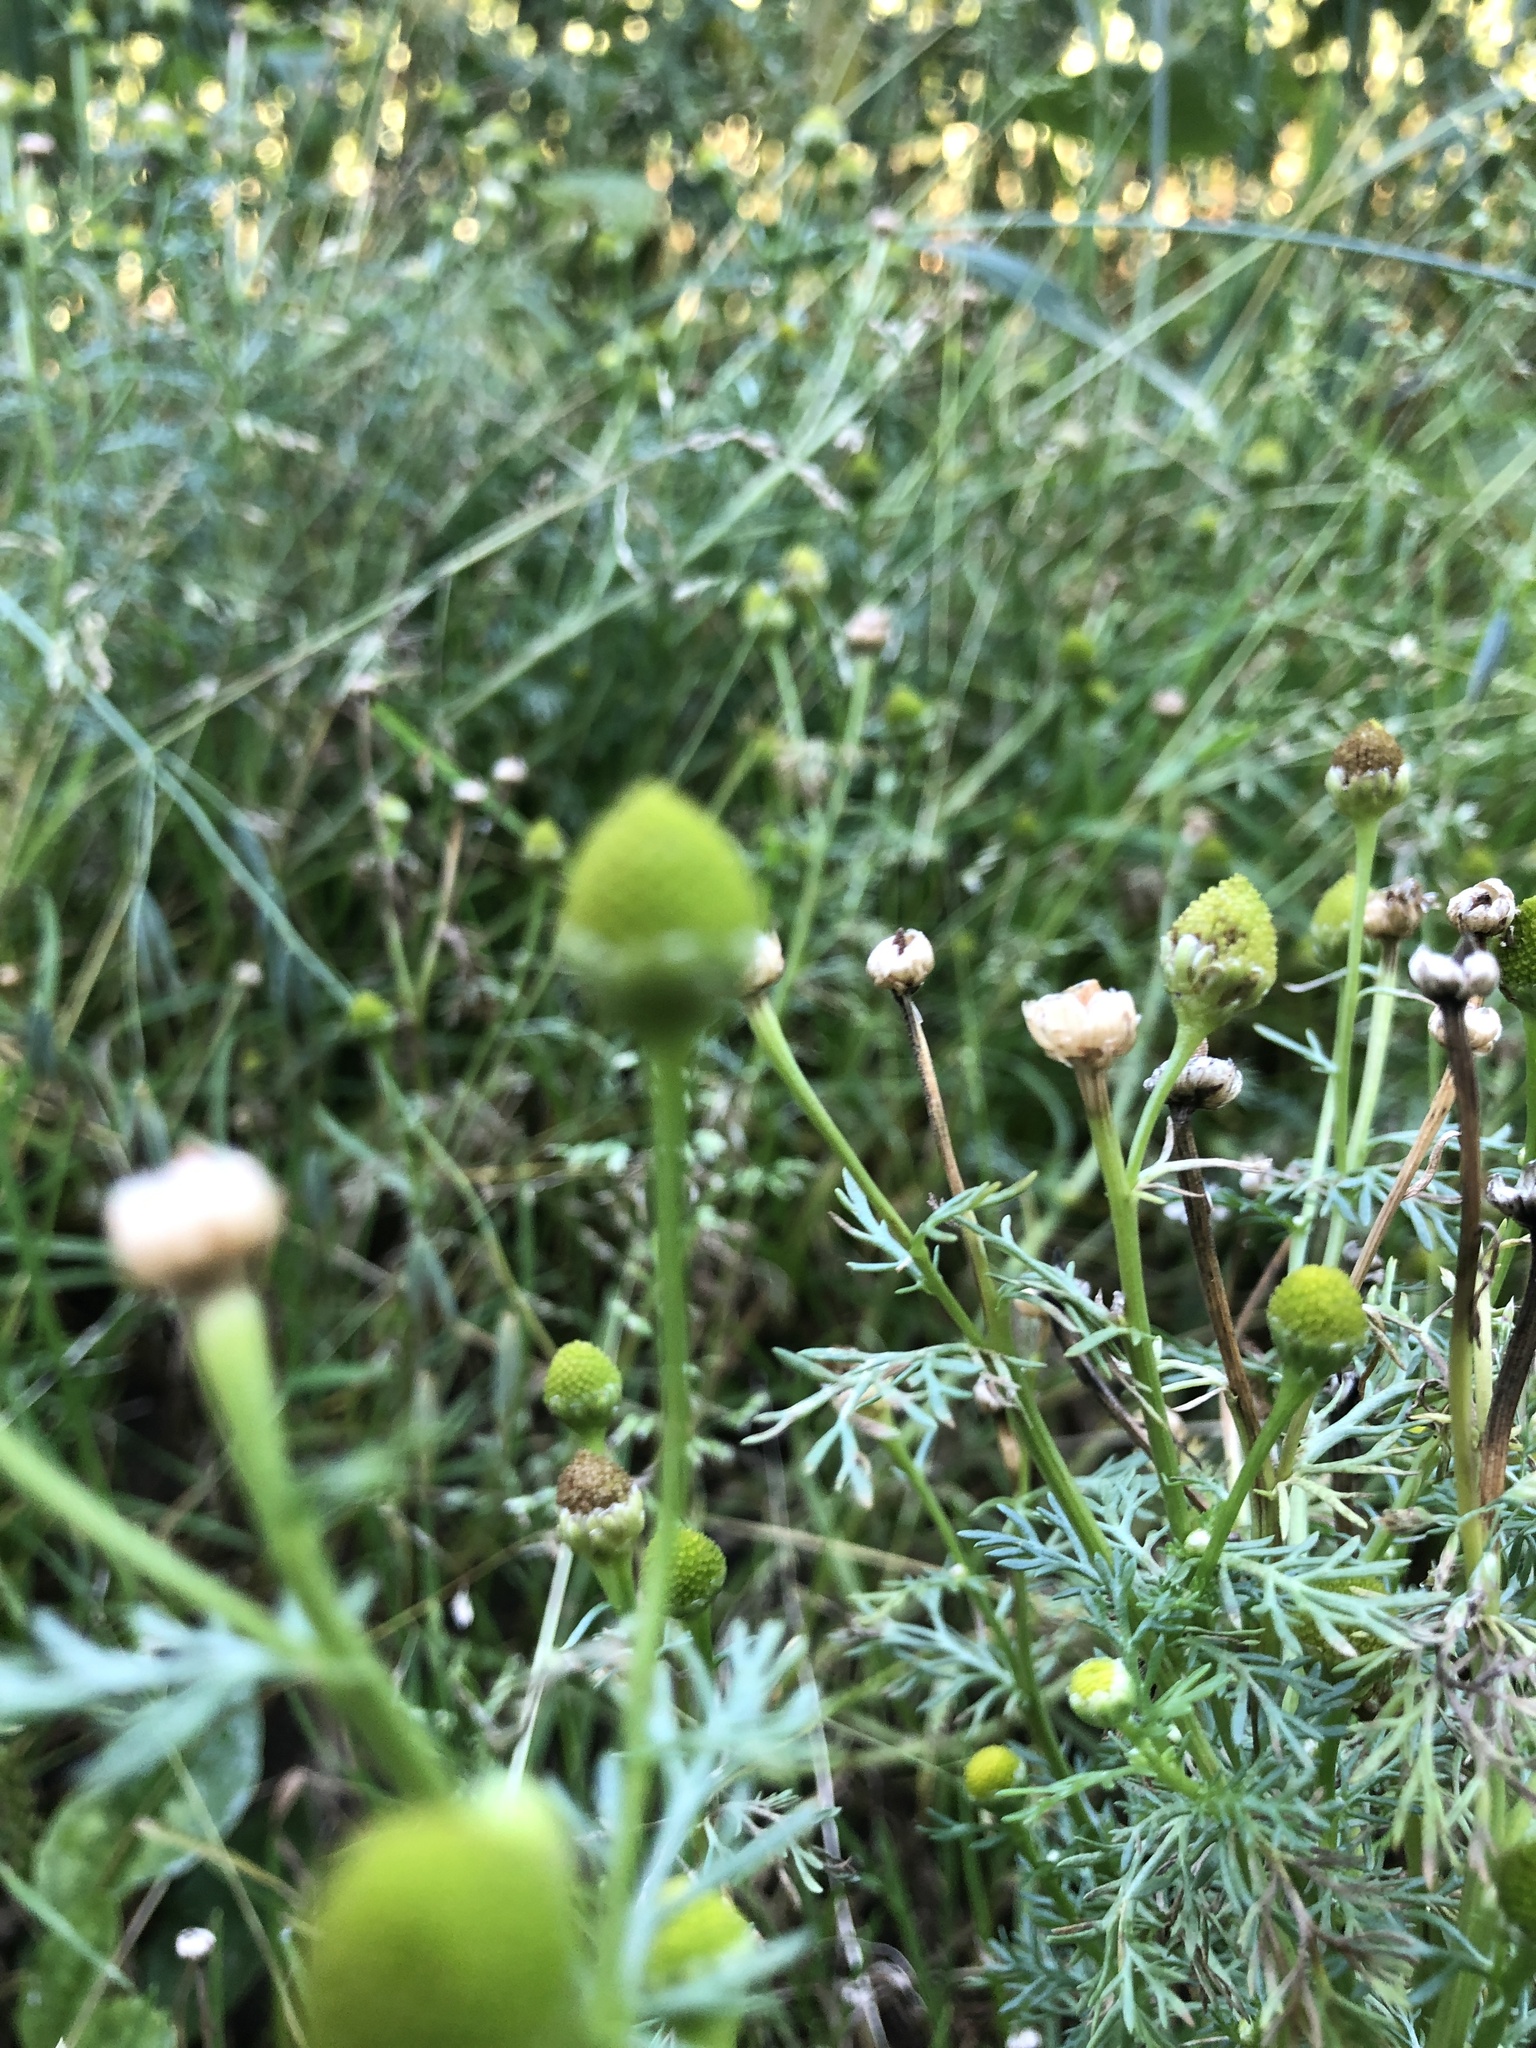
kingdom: Plantae
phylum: Tracheophyta
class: Magnoliopsida
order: Asterales
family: Asteraceae
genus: Matricaria
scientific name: Matricaria discoidea
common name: Disc mayweed
